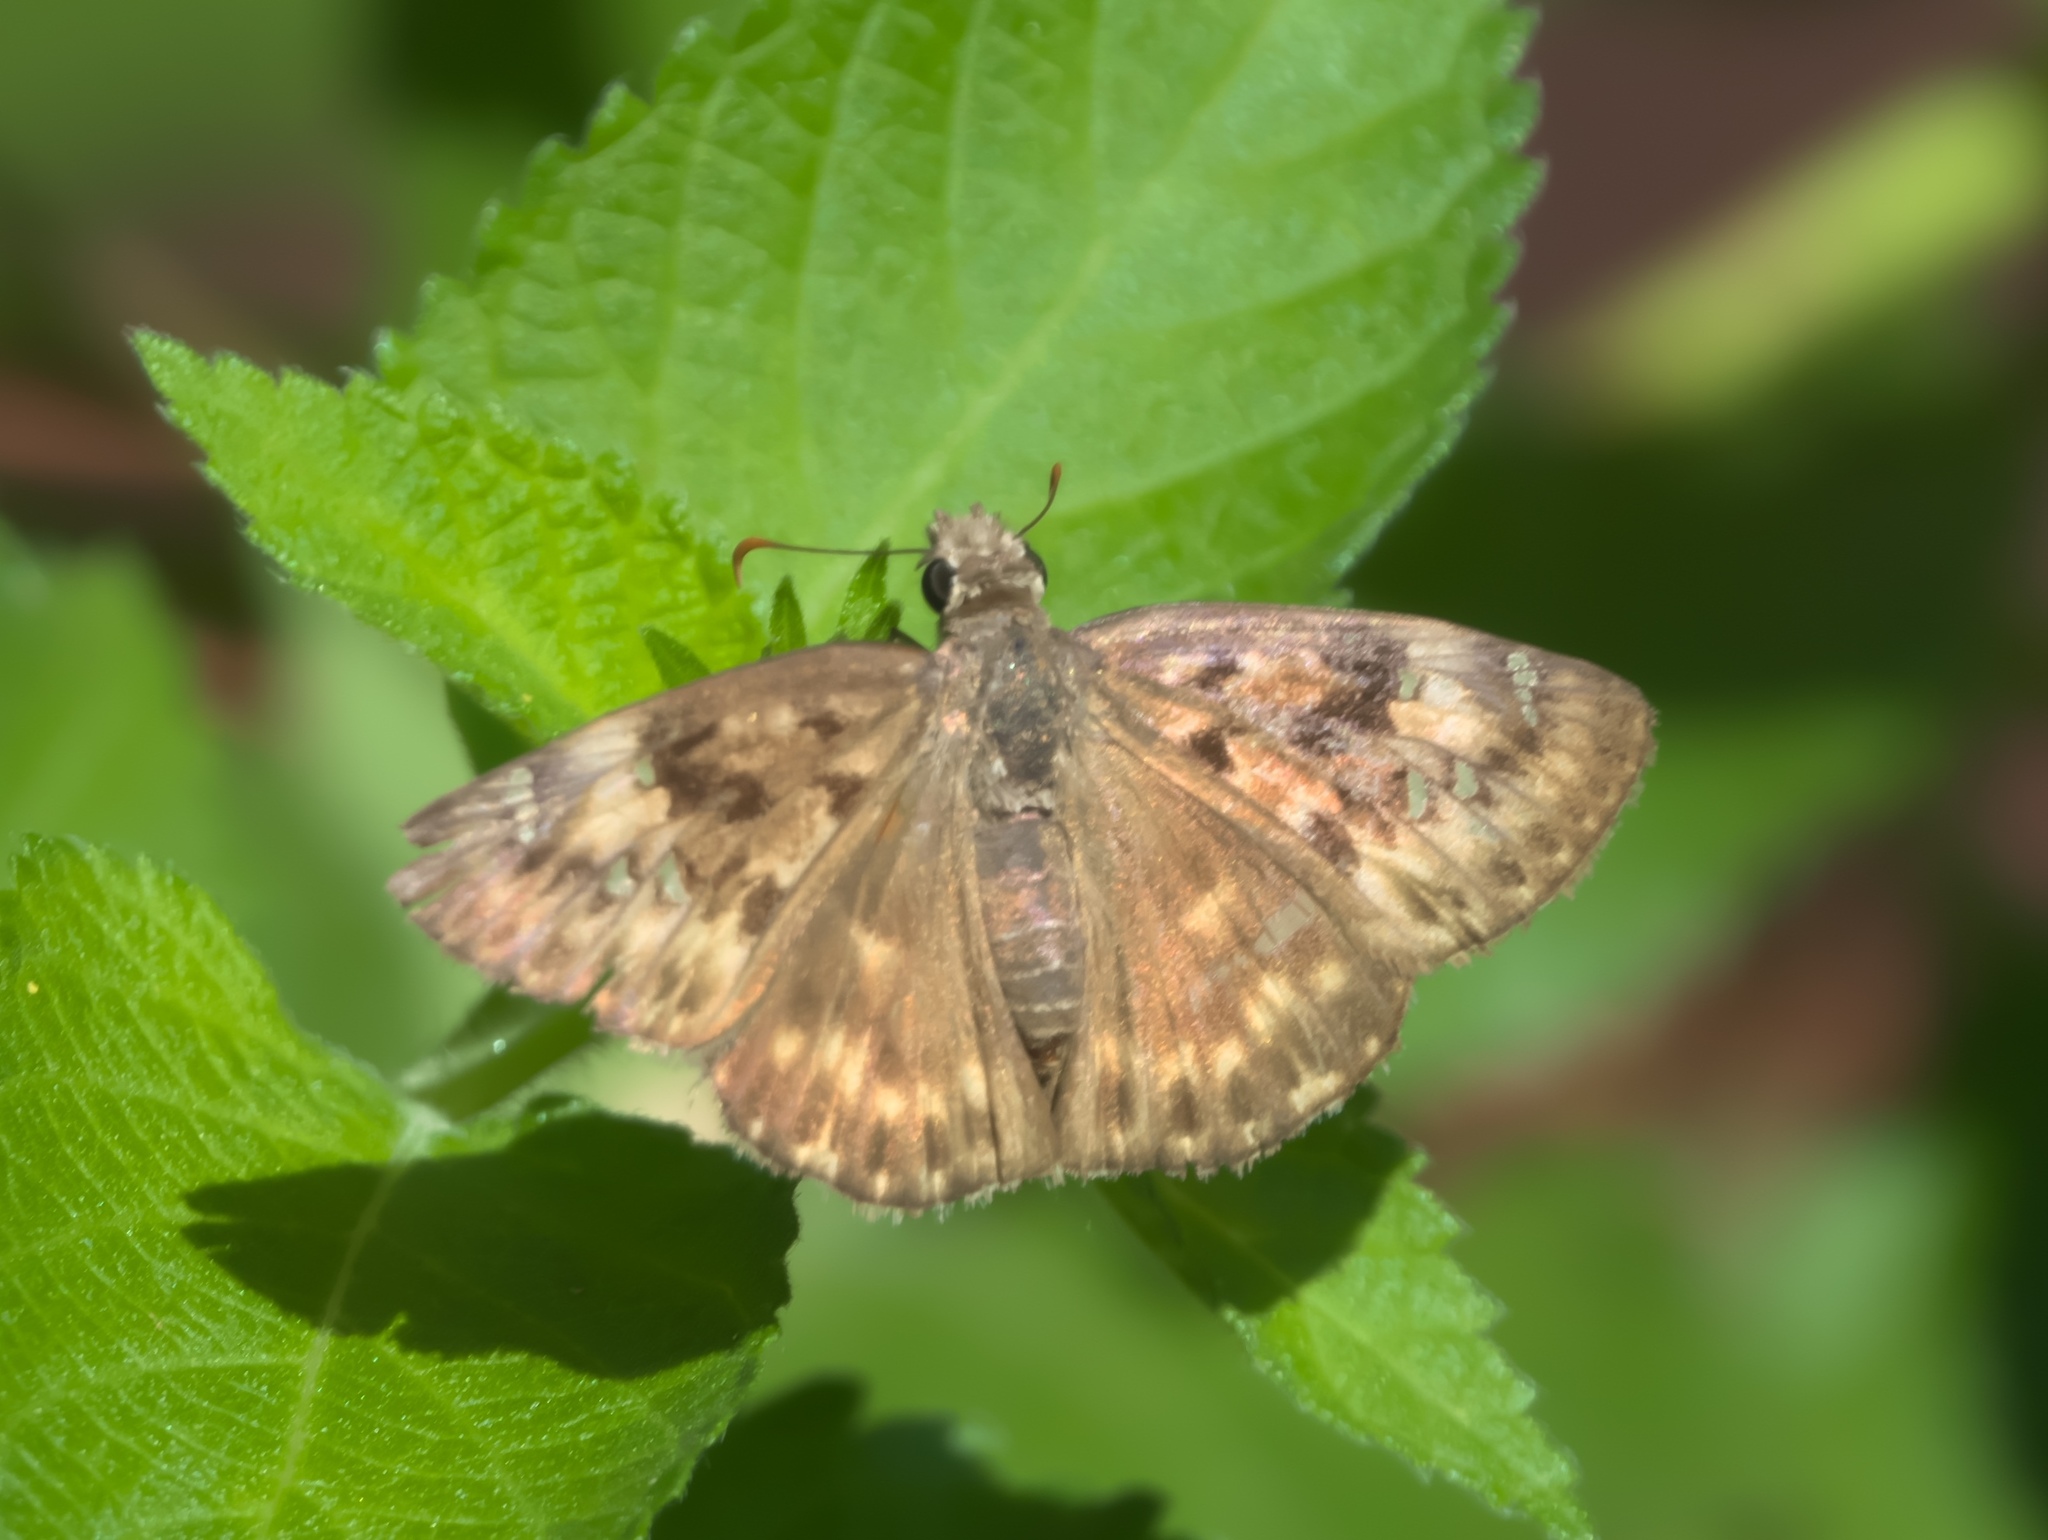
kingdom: Animalia
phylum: Arthropoda
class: Insecta
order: Lepidoptera
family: Hesperiidae
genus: Erynnis
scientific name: Erynnis horatius
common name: Horace's duskywing
